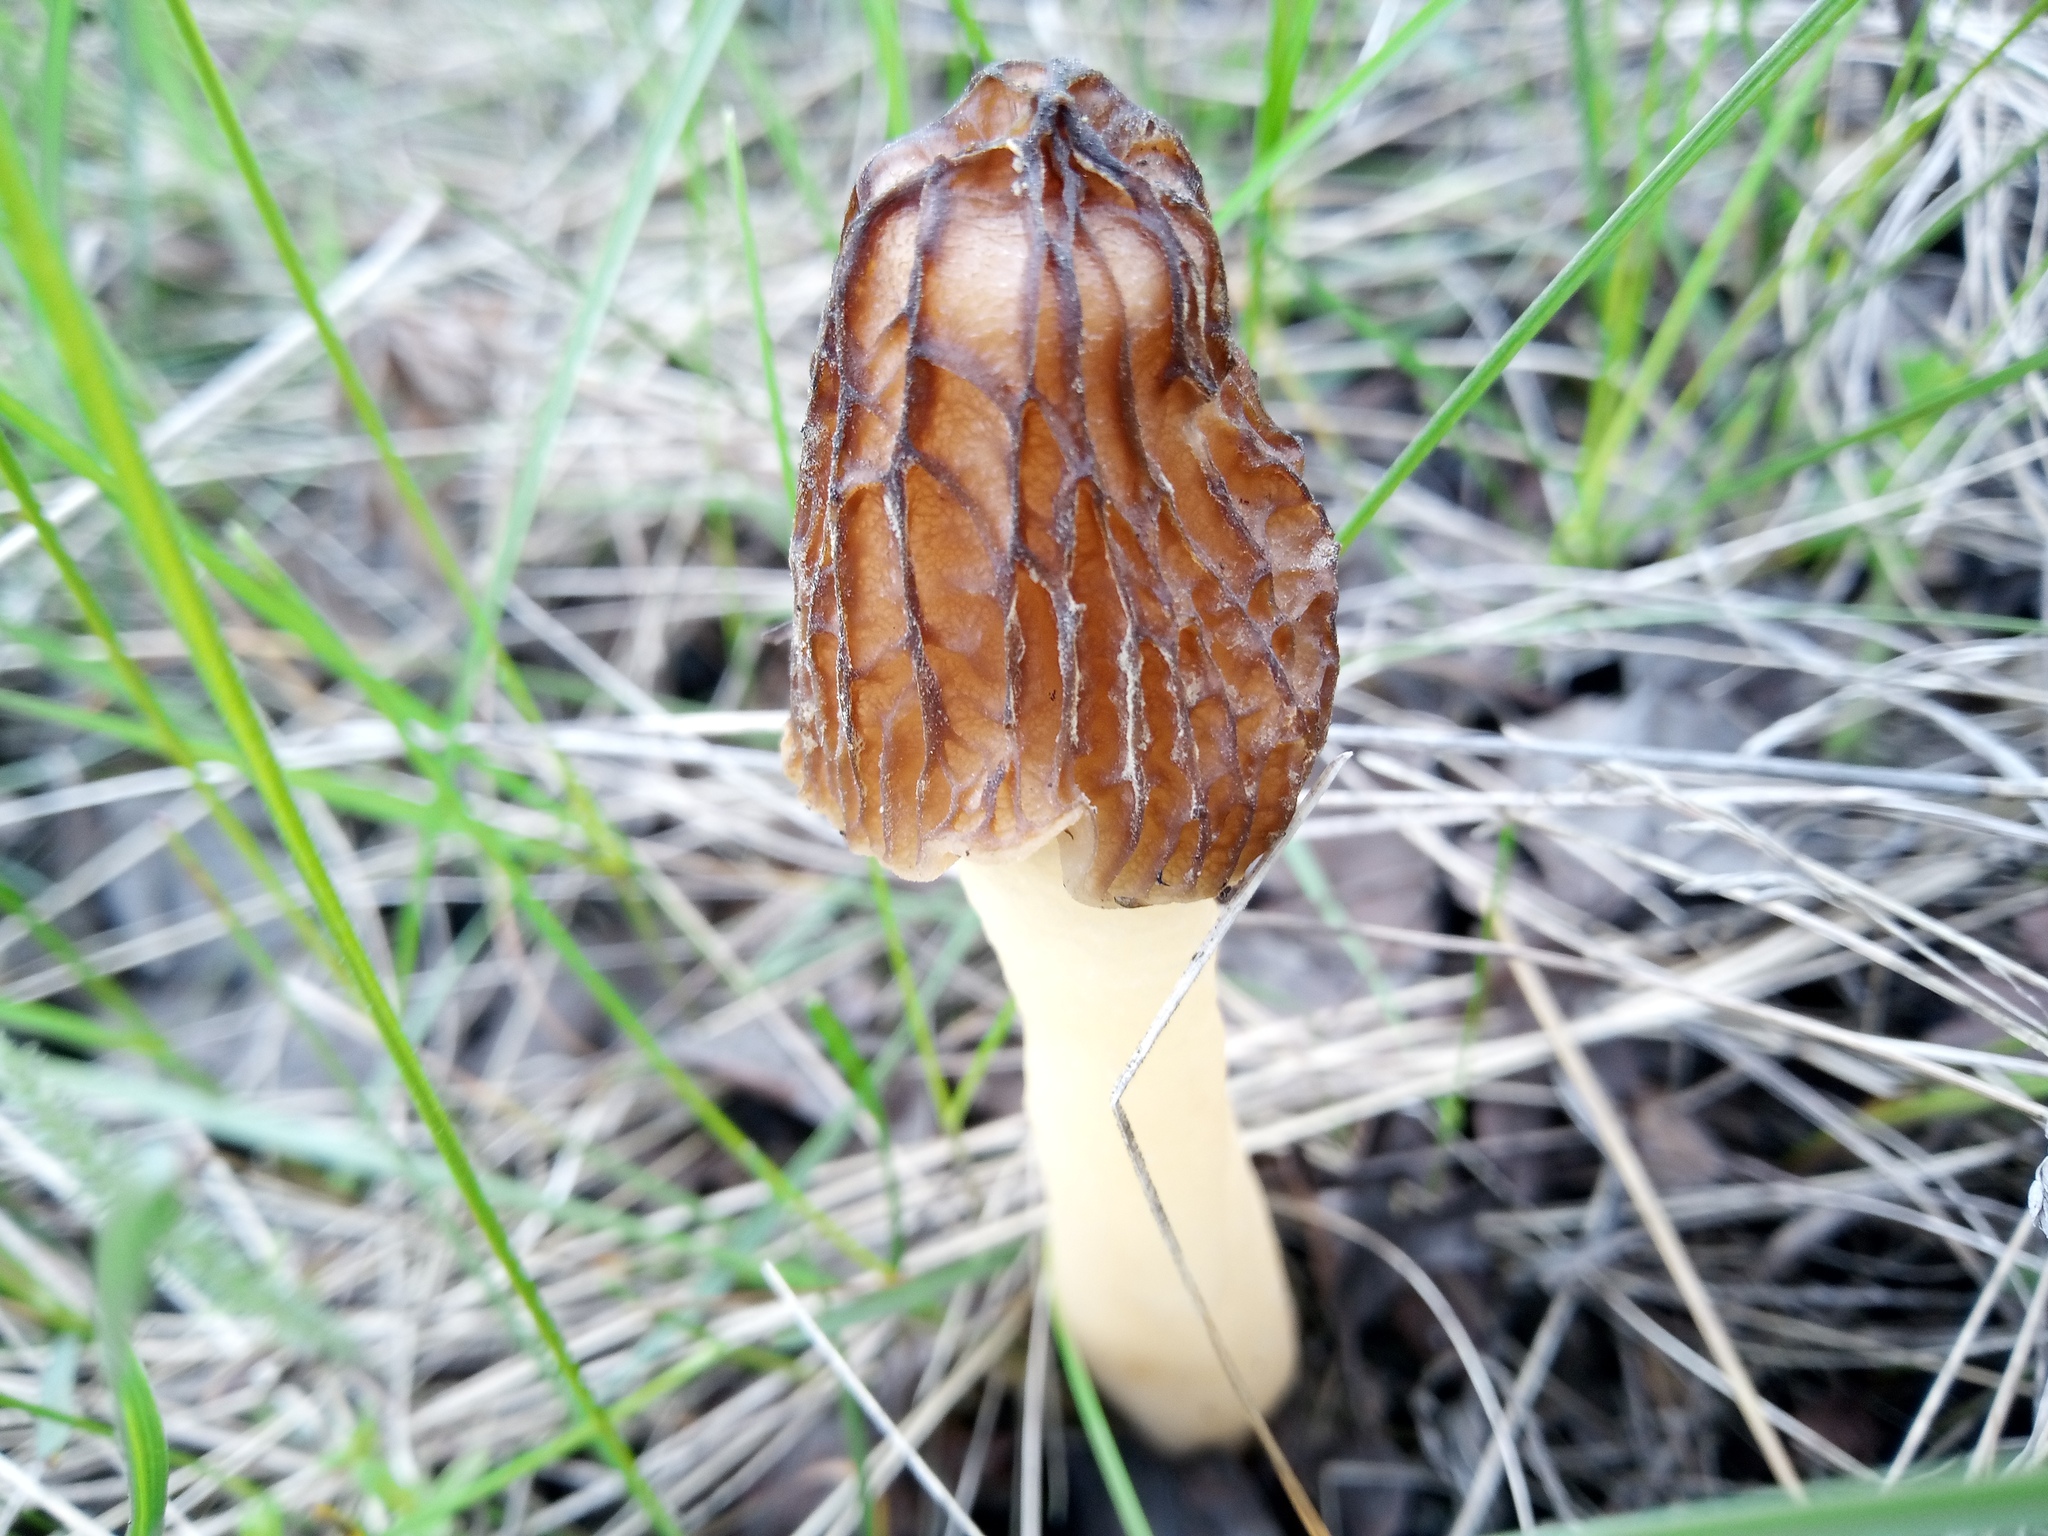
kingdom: Fungi
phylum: Ascomycota
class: Pezizomycetes
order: Pezizales
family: Morchellaceae
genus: Verpa
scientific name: Verpa bohemica
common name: Wrinkled thimble morel
